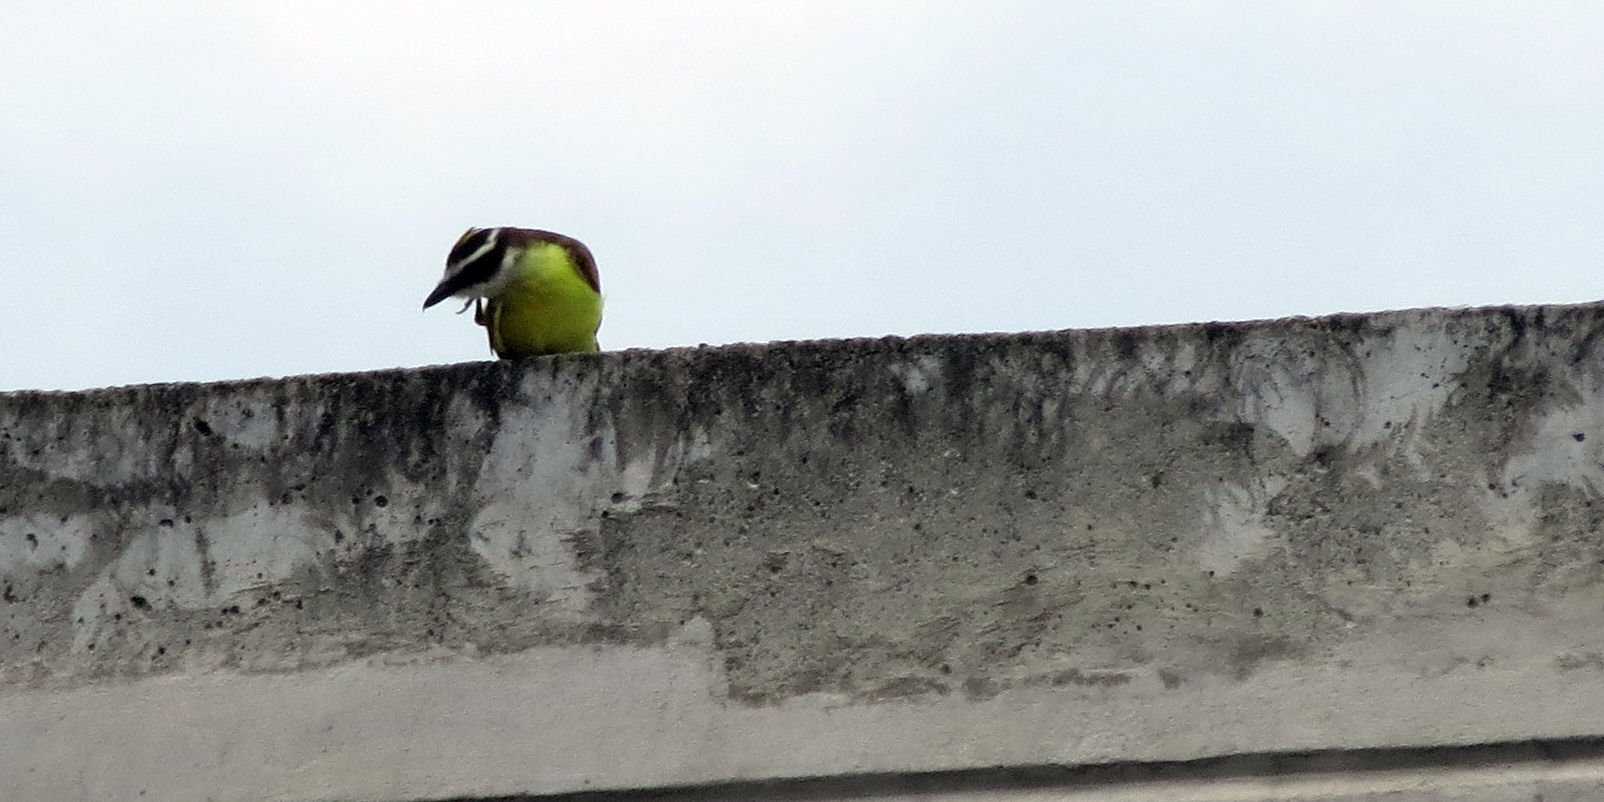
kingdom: Animalia
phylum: Chordata
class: Aves
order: Passeriformes
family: Tyrannidae
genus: Pitangus
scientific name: Pitangus sulphuratus
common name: Great kiskadee
